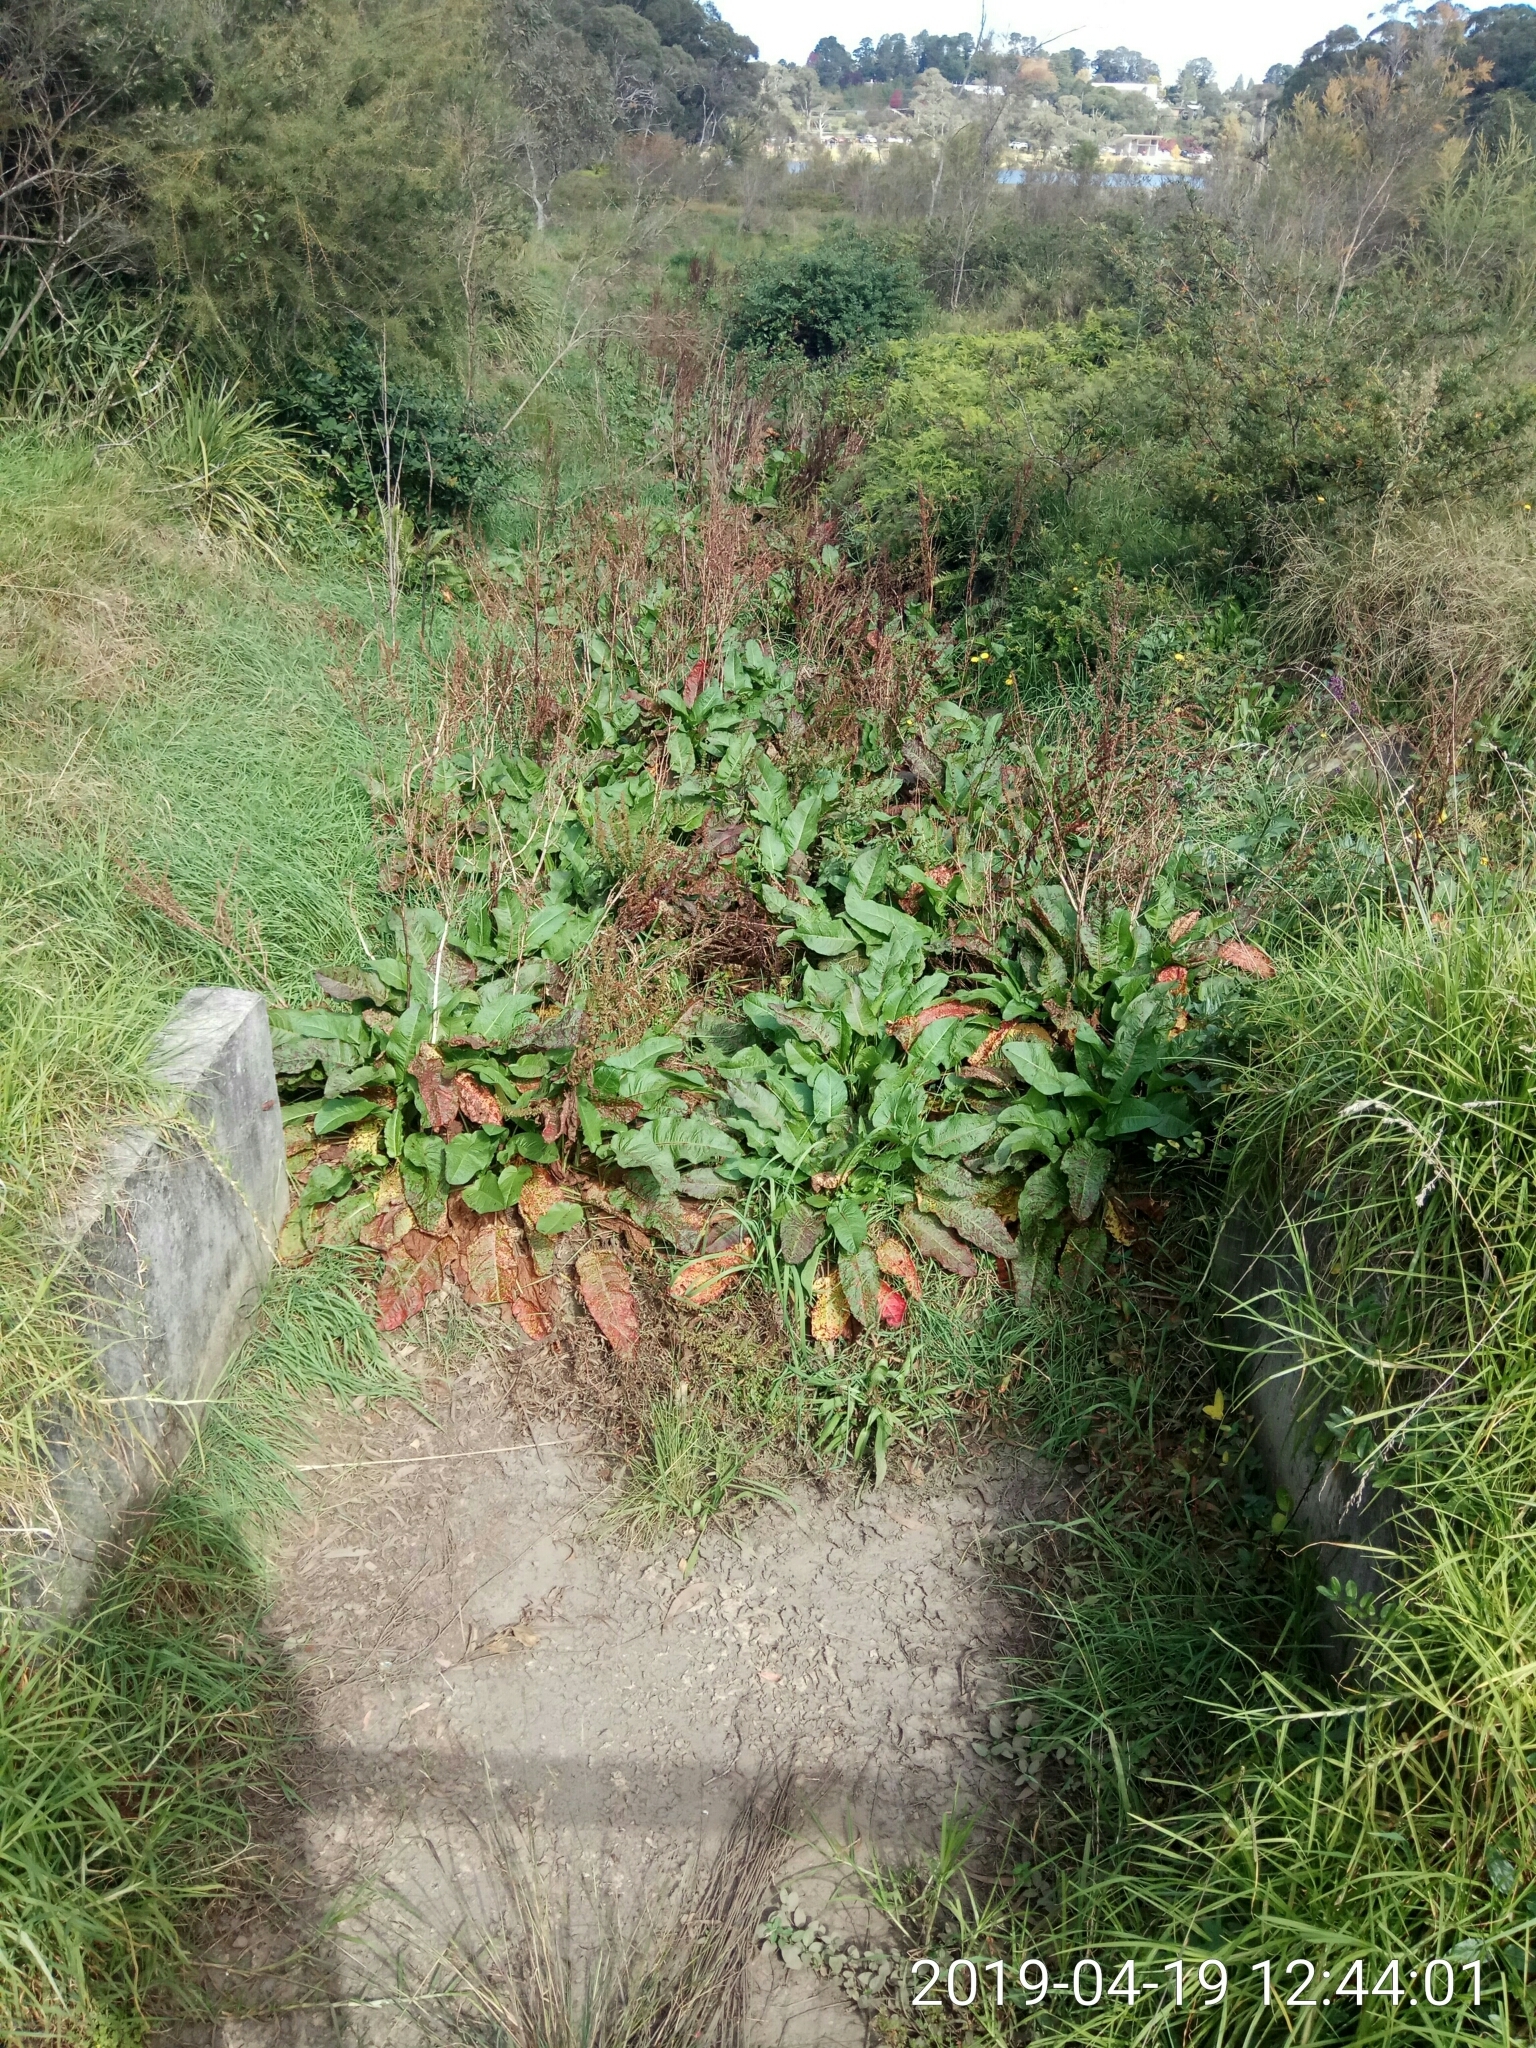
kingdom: Plantae
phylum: Tracheophyta
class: Magnoliopsida
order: Caryophyllales
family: Polygonaceae
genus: Rumex
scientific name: Rumex obtusifolius
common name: Bitter dock
